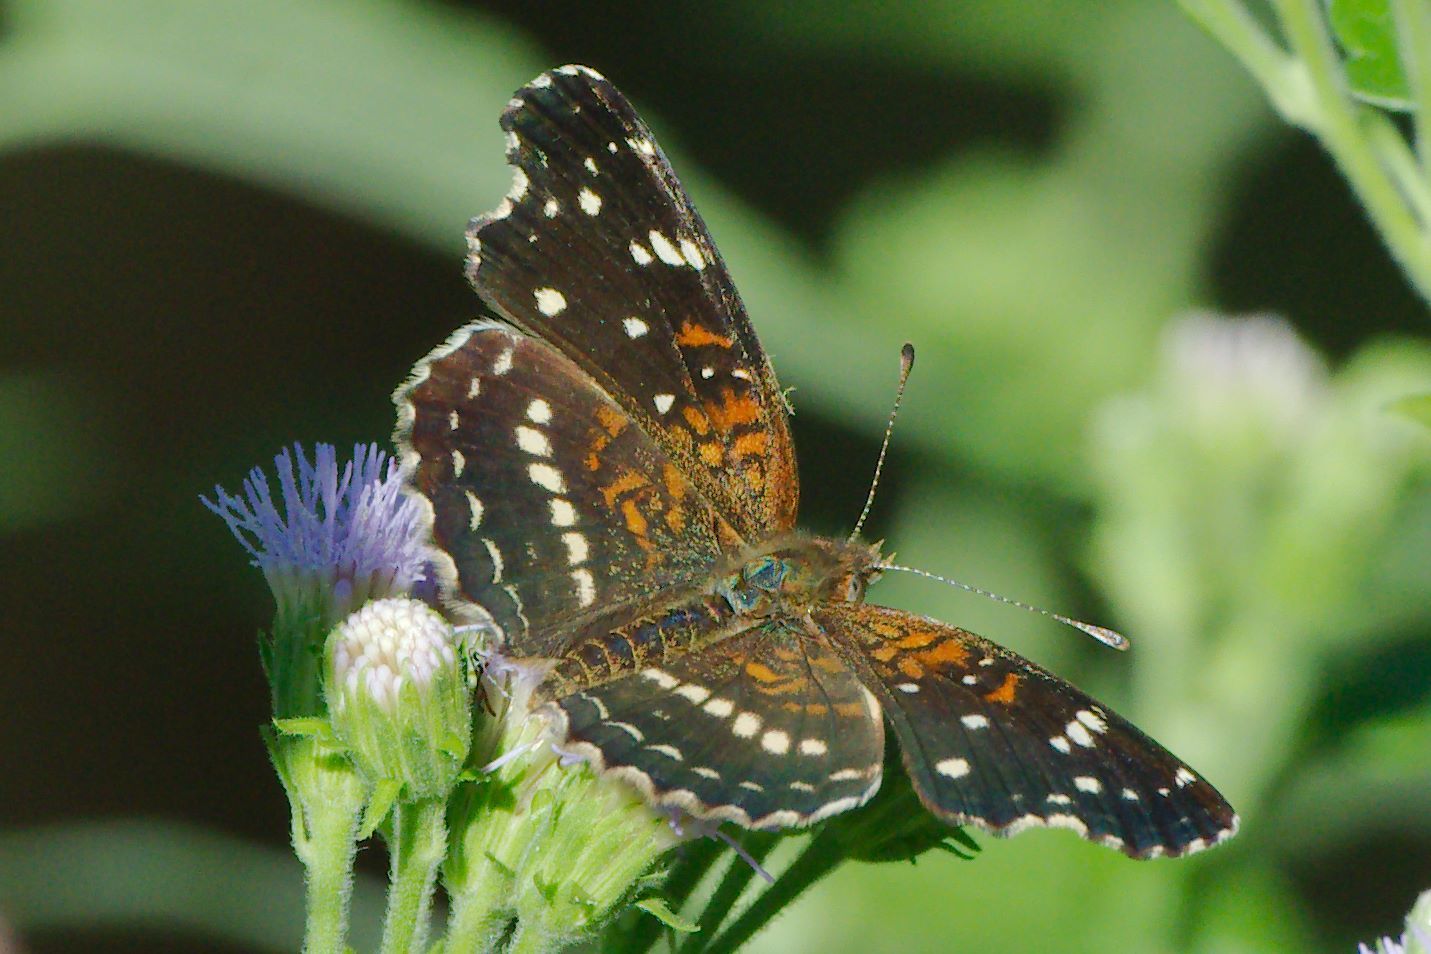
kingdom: Animalia
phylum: Arthropoda
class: Insecta
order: Lepidoptera
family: Nymphalidae
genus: Anthanassa
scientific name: Anthanassa texana
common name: Texan crescent
